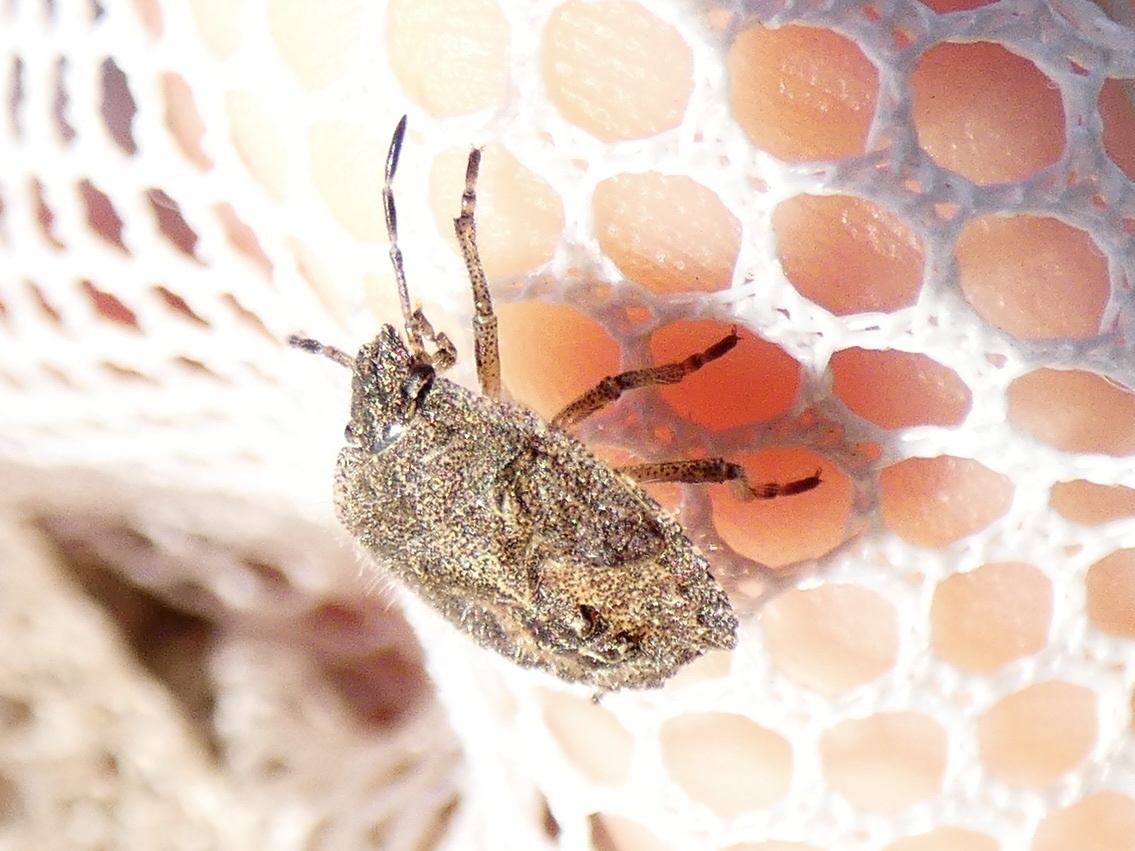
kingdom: Animalia
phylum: Arthropoda
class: Insecta
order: Hemiptera
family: Pentatomidae
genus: Dolycoris
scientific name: Dolycoris baccarum
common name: Sloe bug
